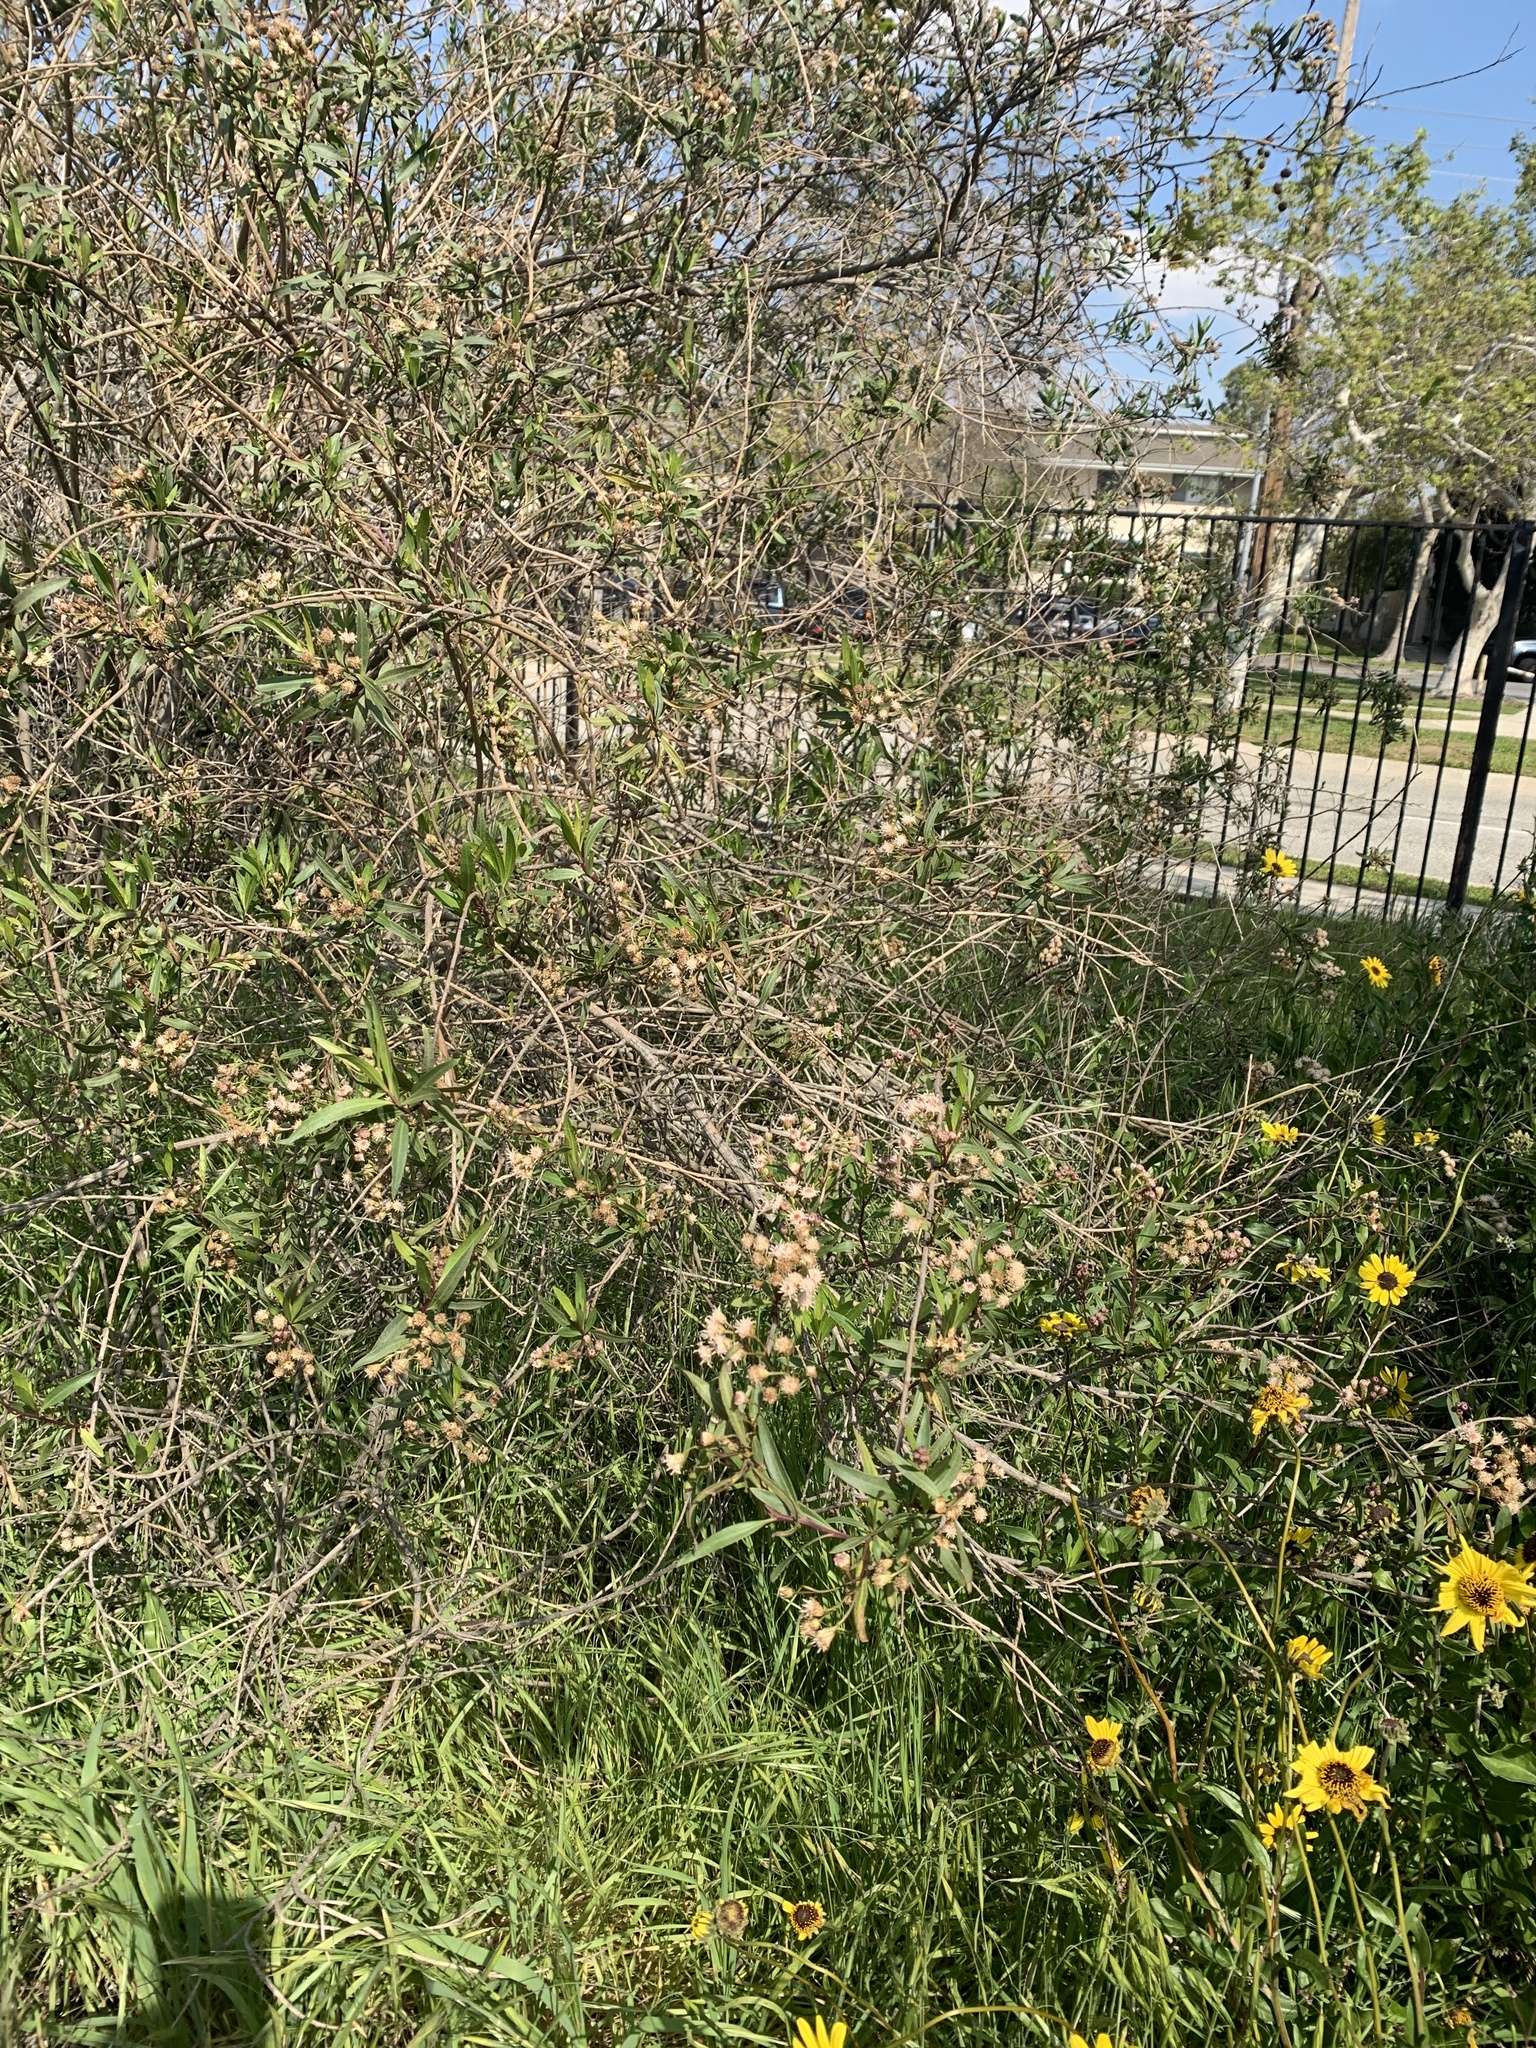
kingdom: Plantae
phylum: Tracheophyta
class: Magnoliopsida
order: Asterales
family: Asteraceae
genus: Baccharis
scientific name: Baccharis salicifolia
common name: Sticky baccharis
